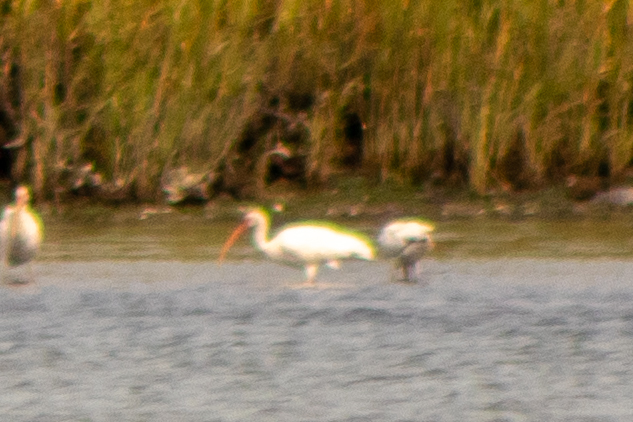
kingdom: Animalia
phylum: Chordata
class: Aves
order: Pelecaniformes
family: Threskiornithidae
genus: Eudocimus
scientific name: Eudocimus albus
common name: White ibis
